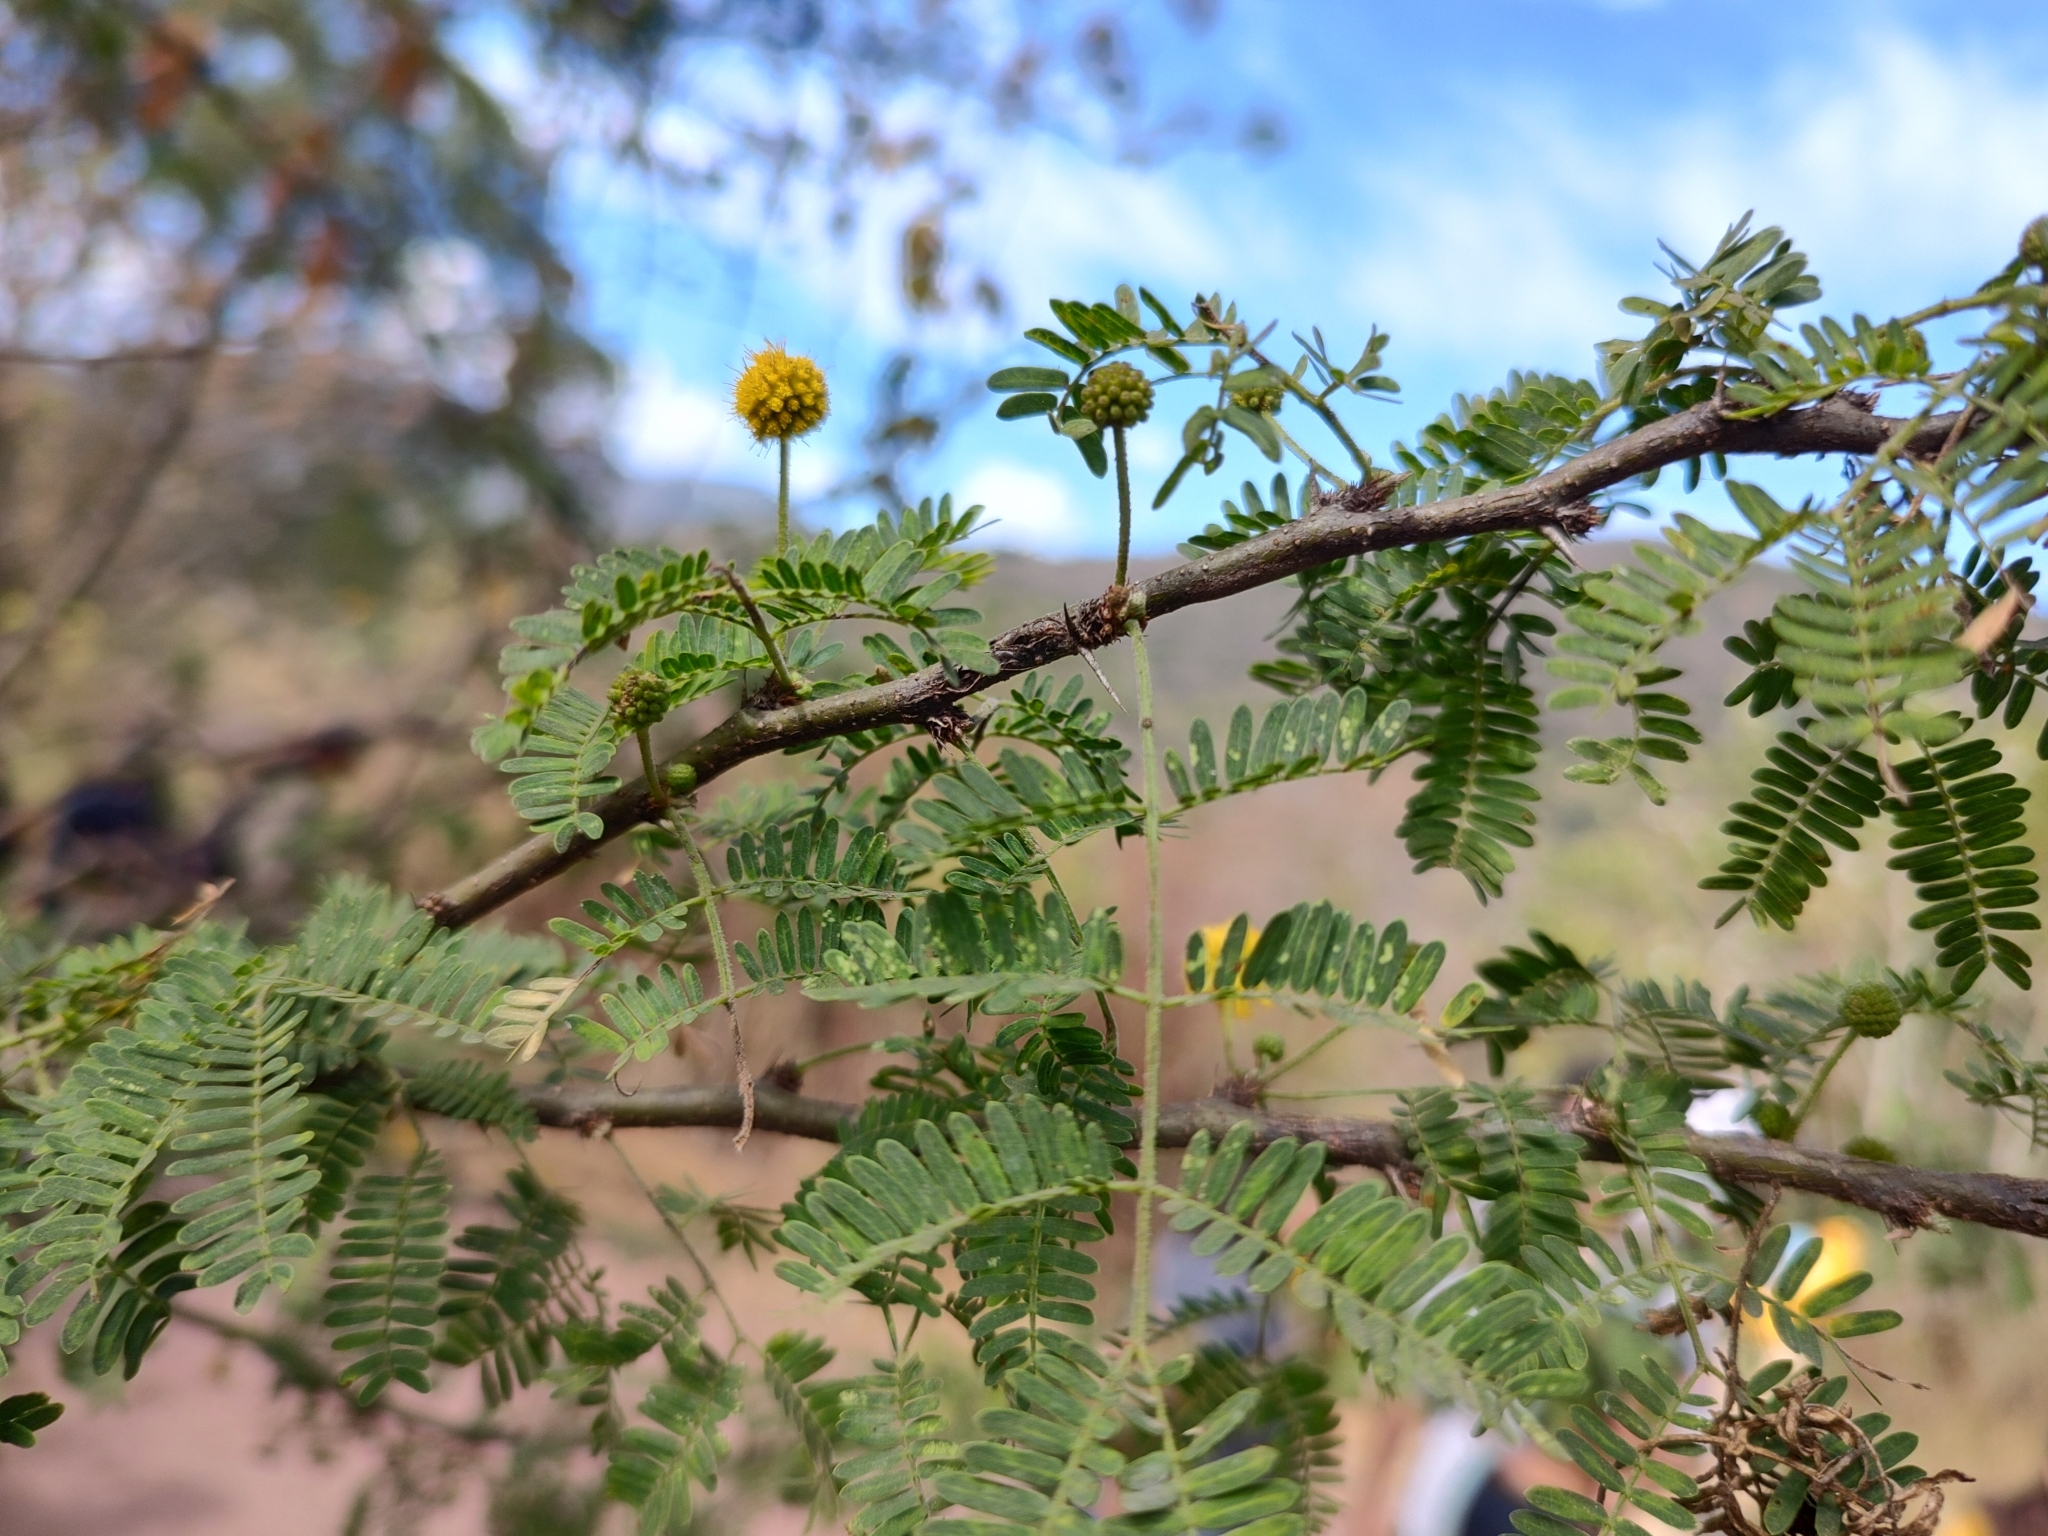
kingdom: Plantae
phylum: Tracheophyta
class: Magnoliopsida
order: Fabales
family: Fabaceae
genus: Vachellia
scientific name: Vachellia farnesiana
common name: Sweet acacia
